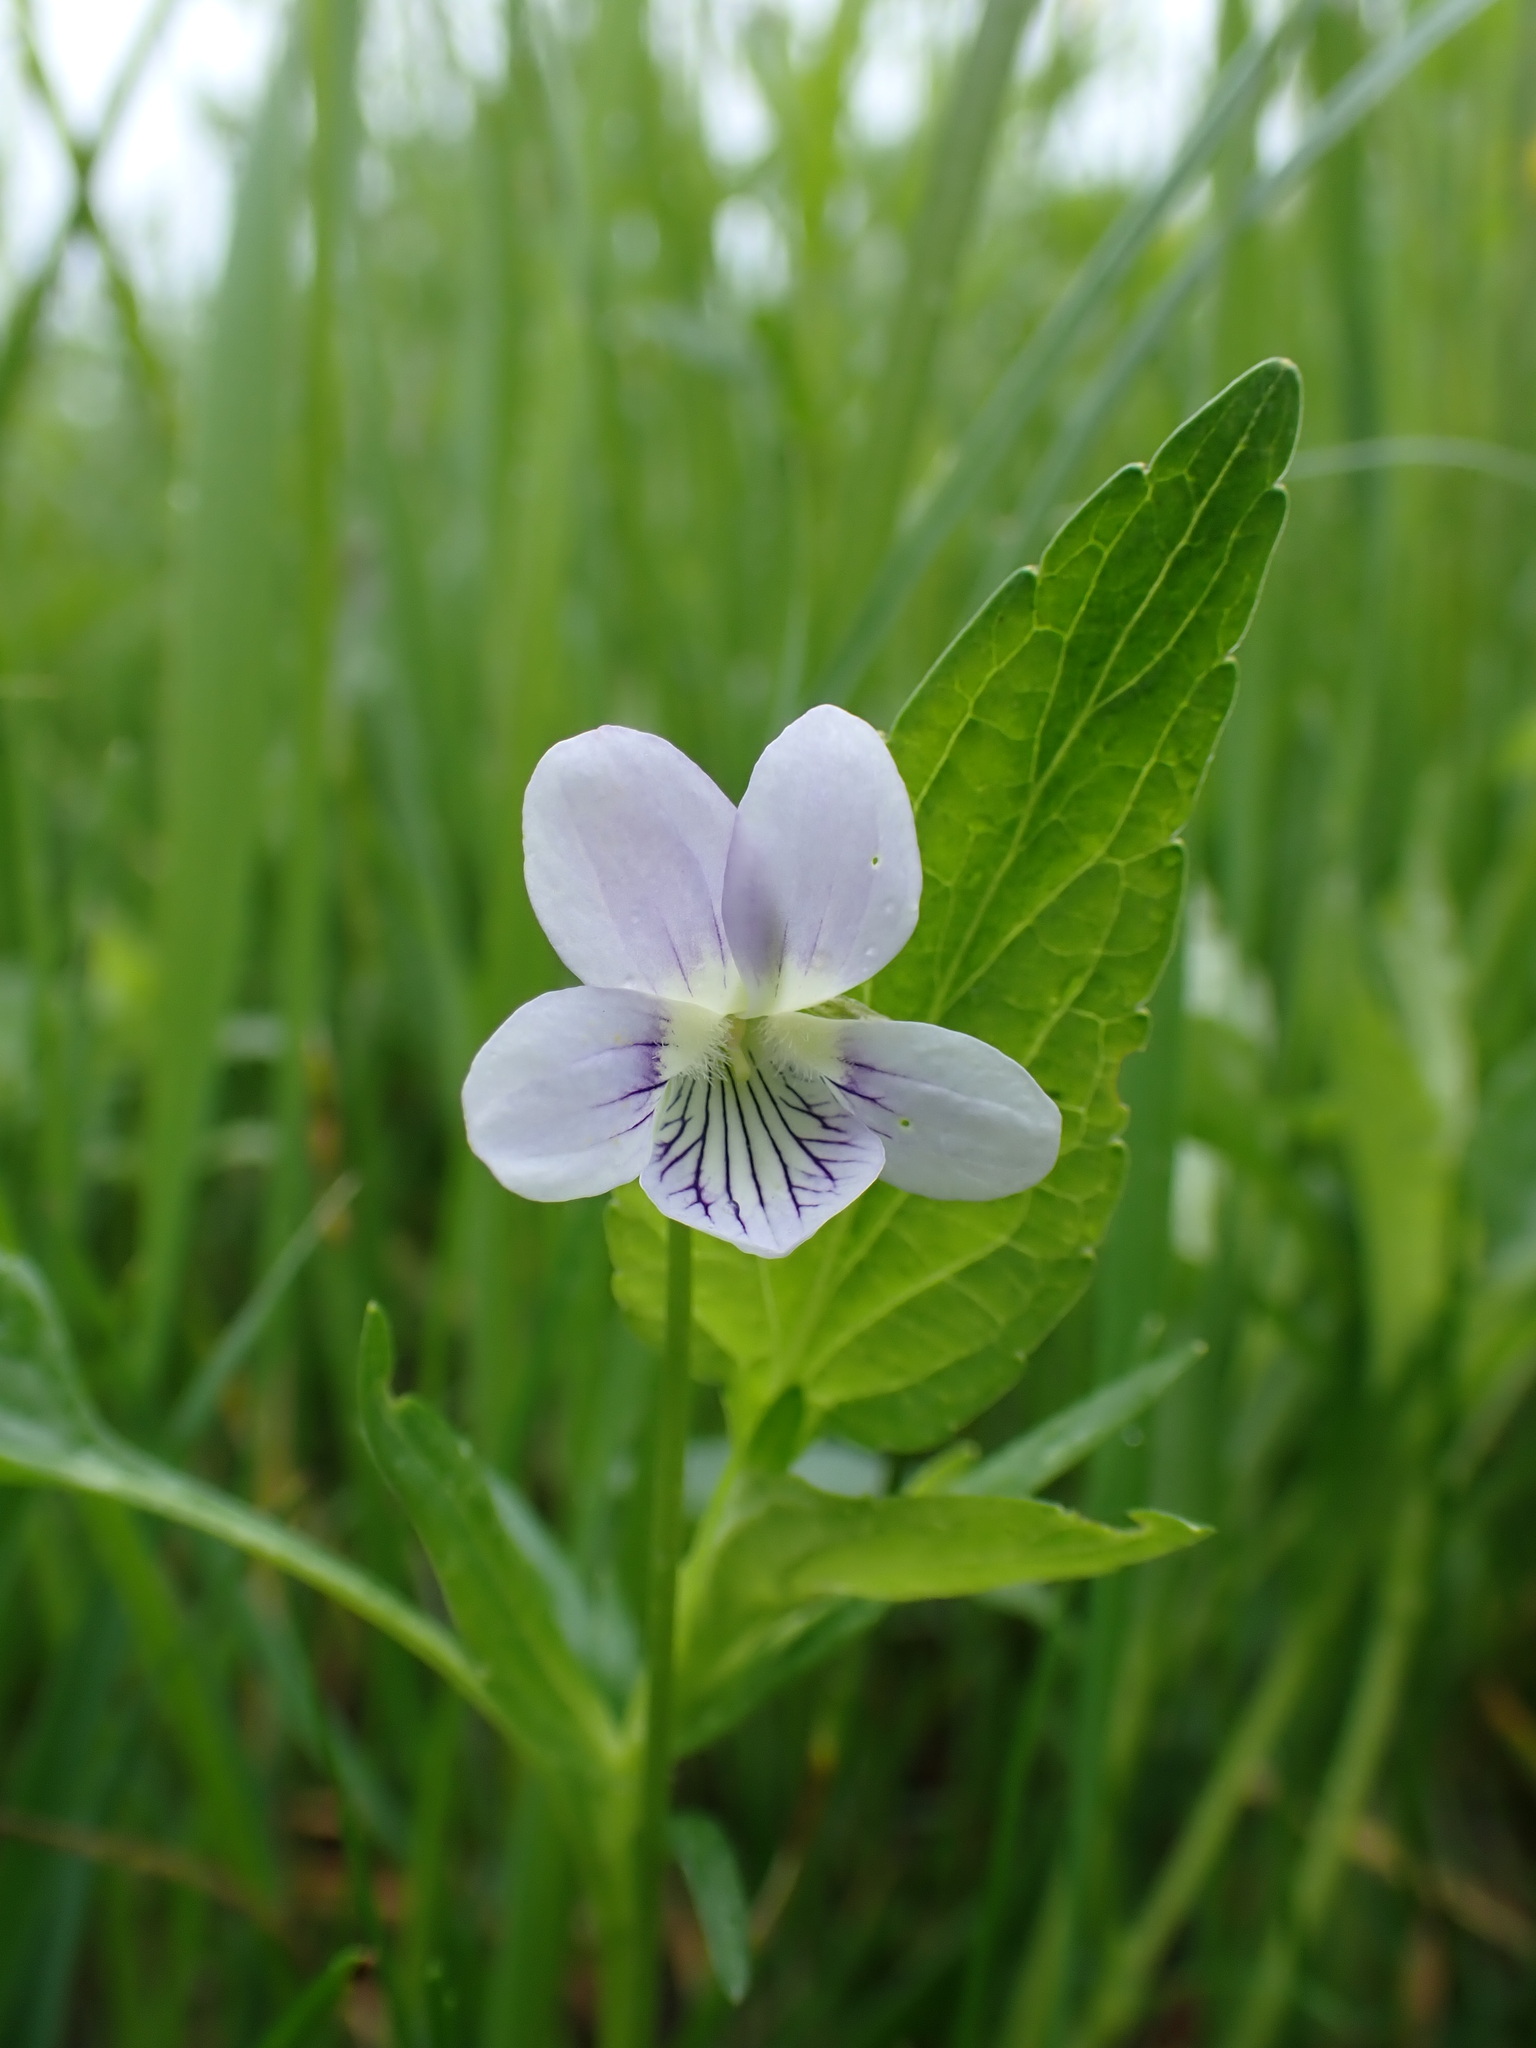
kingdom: Plantae
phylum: Tracheophyta
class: Magnoliopsida
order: Malpighiales
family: Violaceae
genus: Viola
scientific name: Viola pumila
